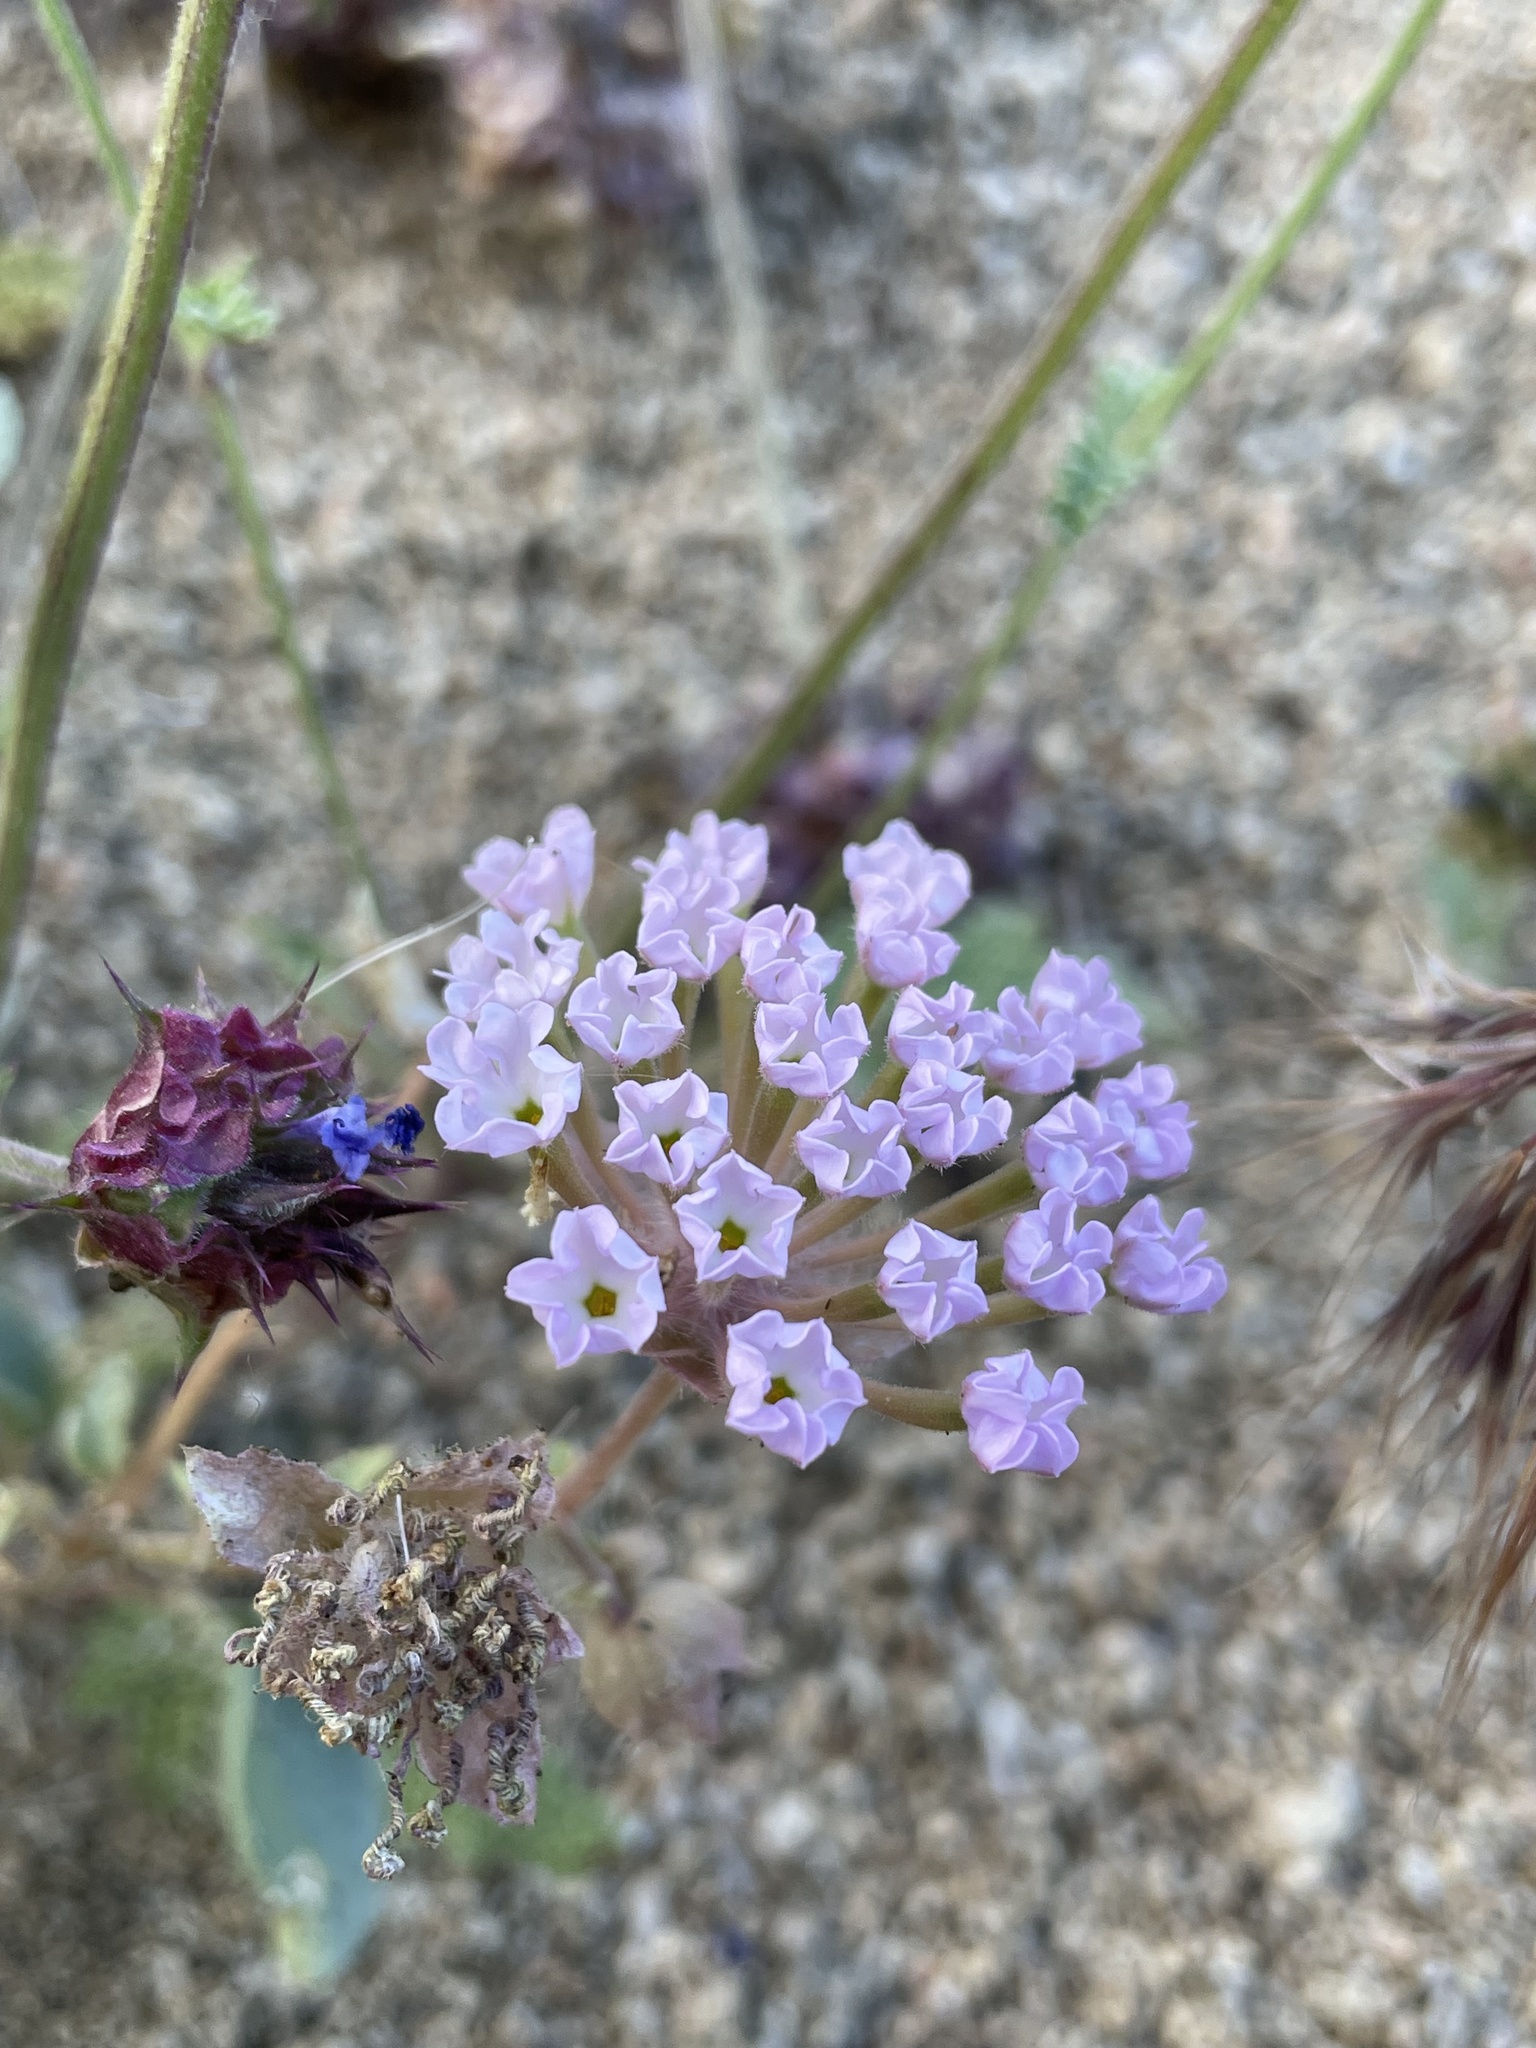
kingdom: Plantae
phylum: Tracheophyta
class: Magnoliopsida
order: Caryophyllales
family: Nyctaginaceae
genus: Abronia
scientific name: Abronia pogonantha
